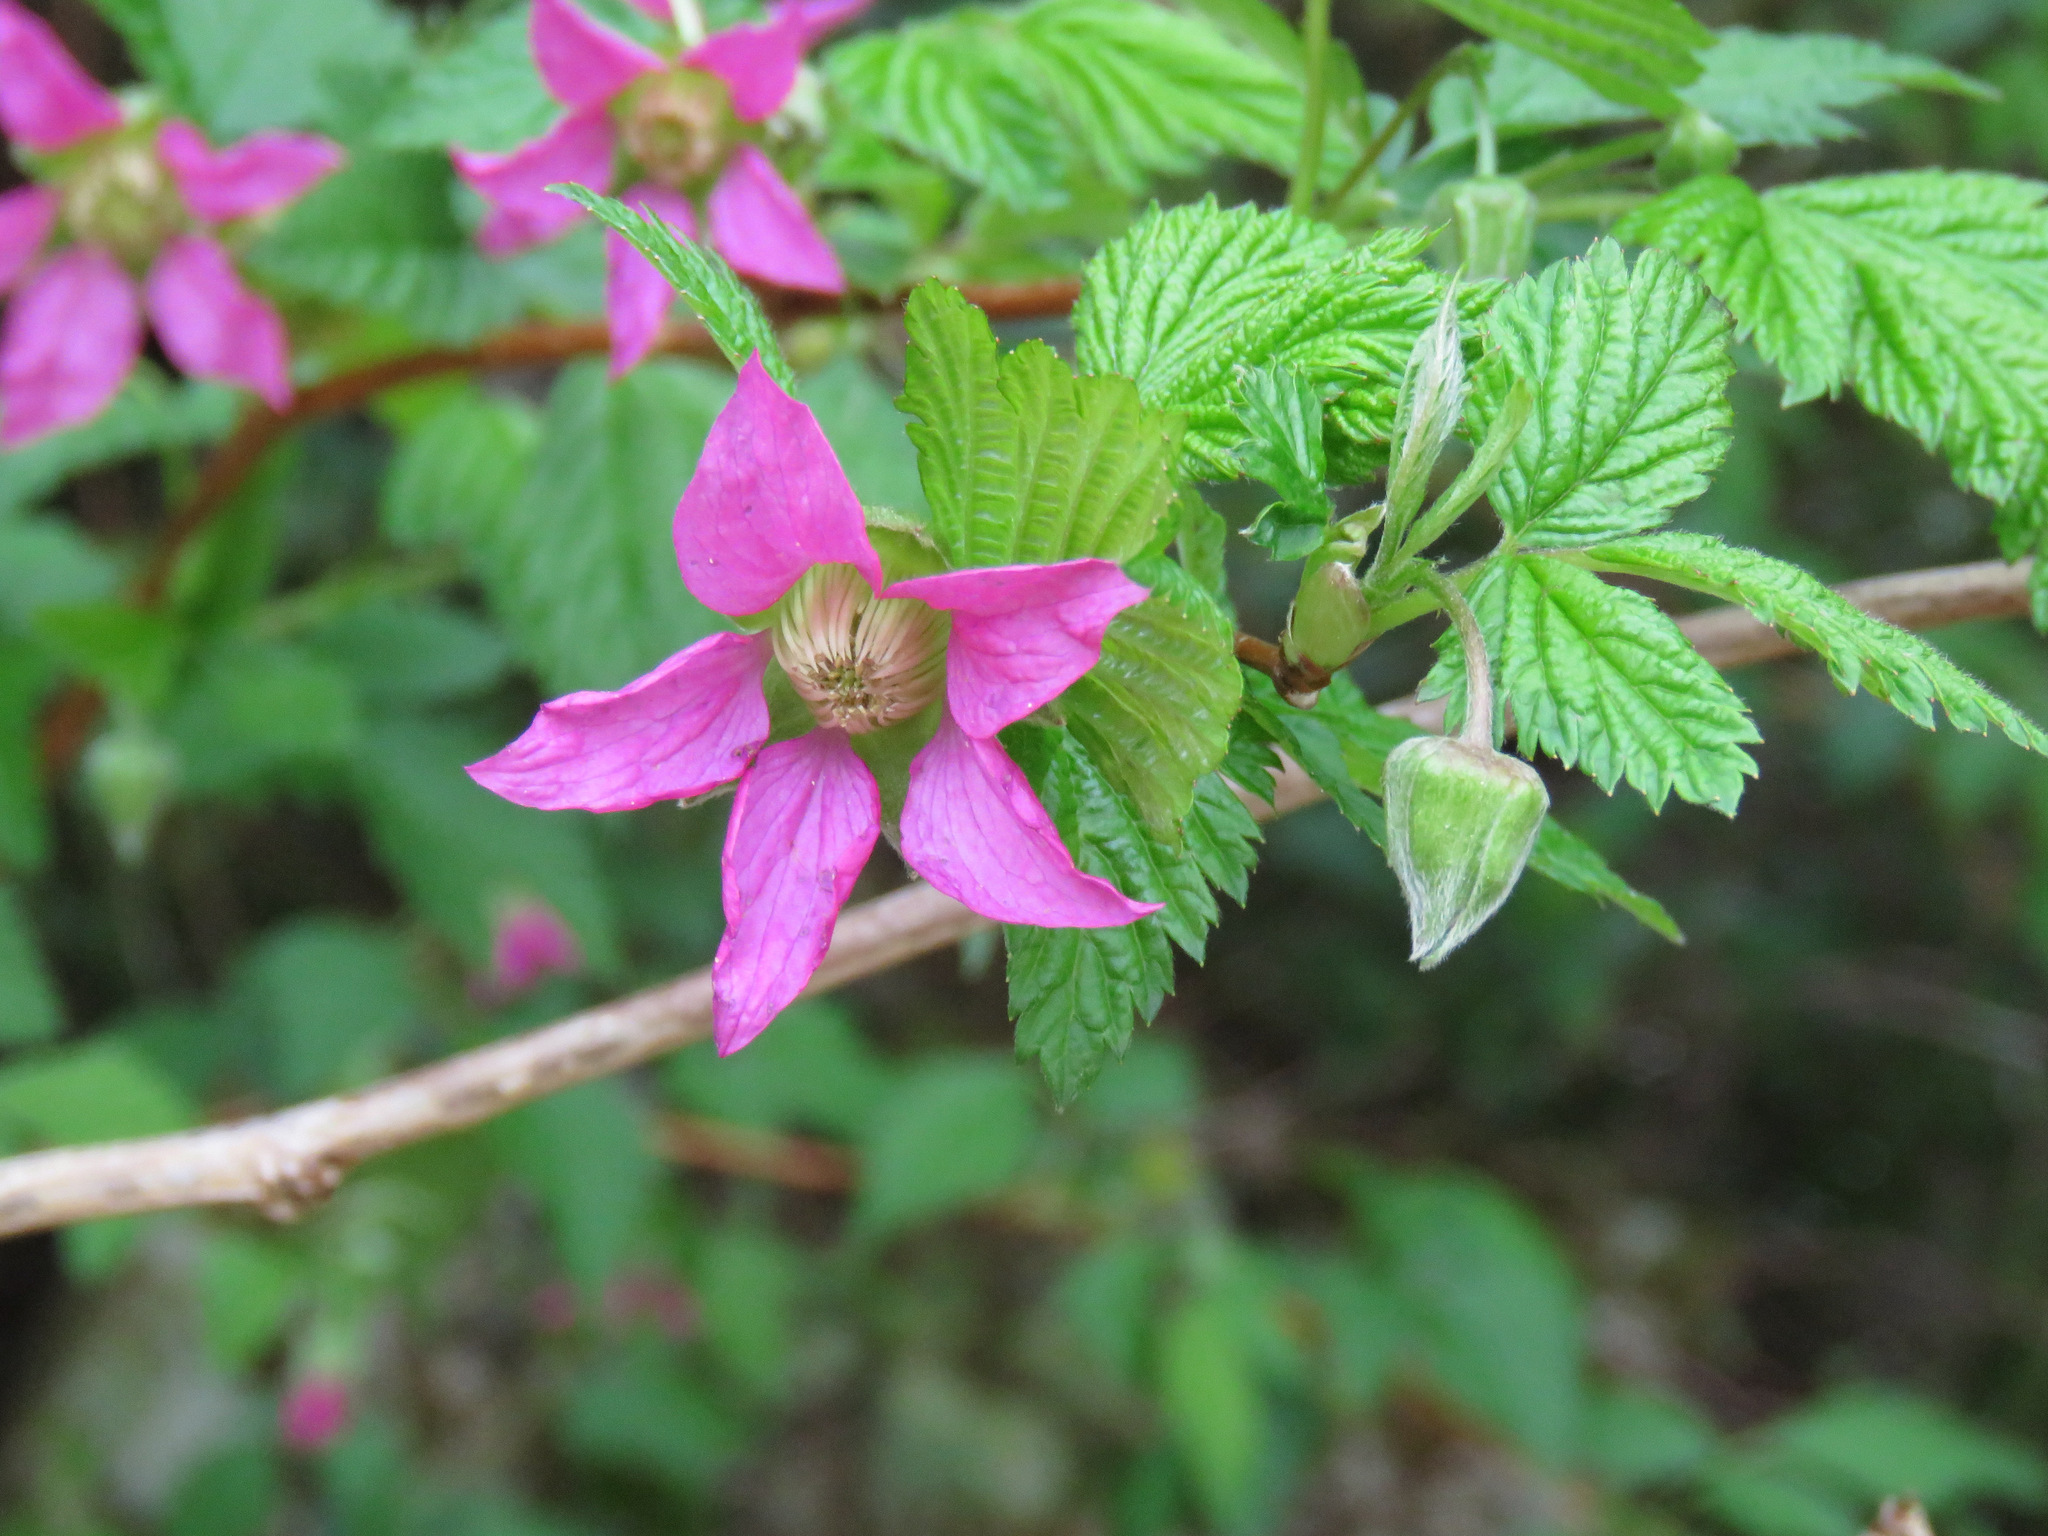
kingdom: Plantae
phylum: Tracheophyta
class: Magnoliopsida
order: Rosales
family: Rosaceae
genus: Rubus
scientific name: Rubus spectabilis
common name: Salmonberry
